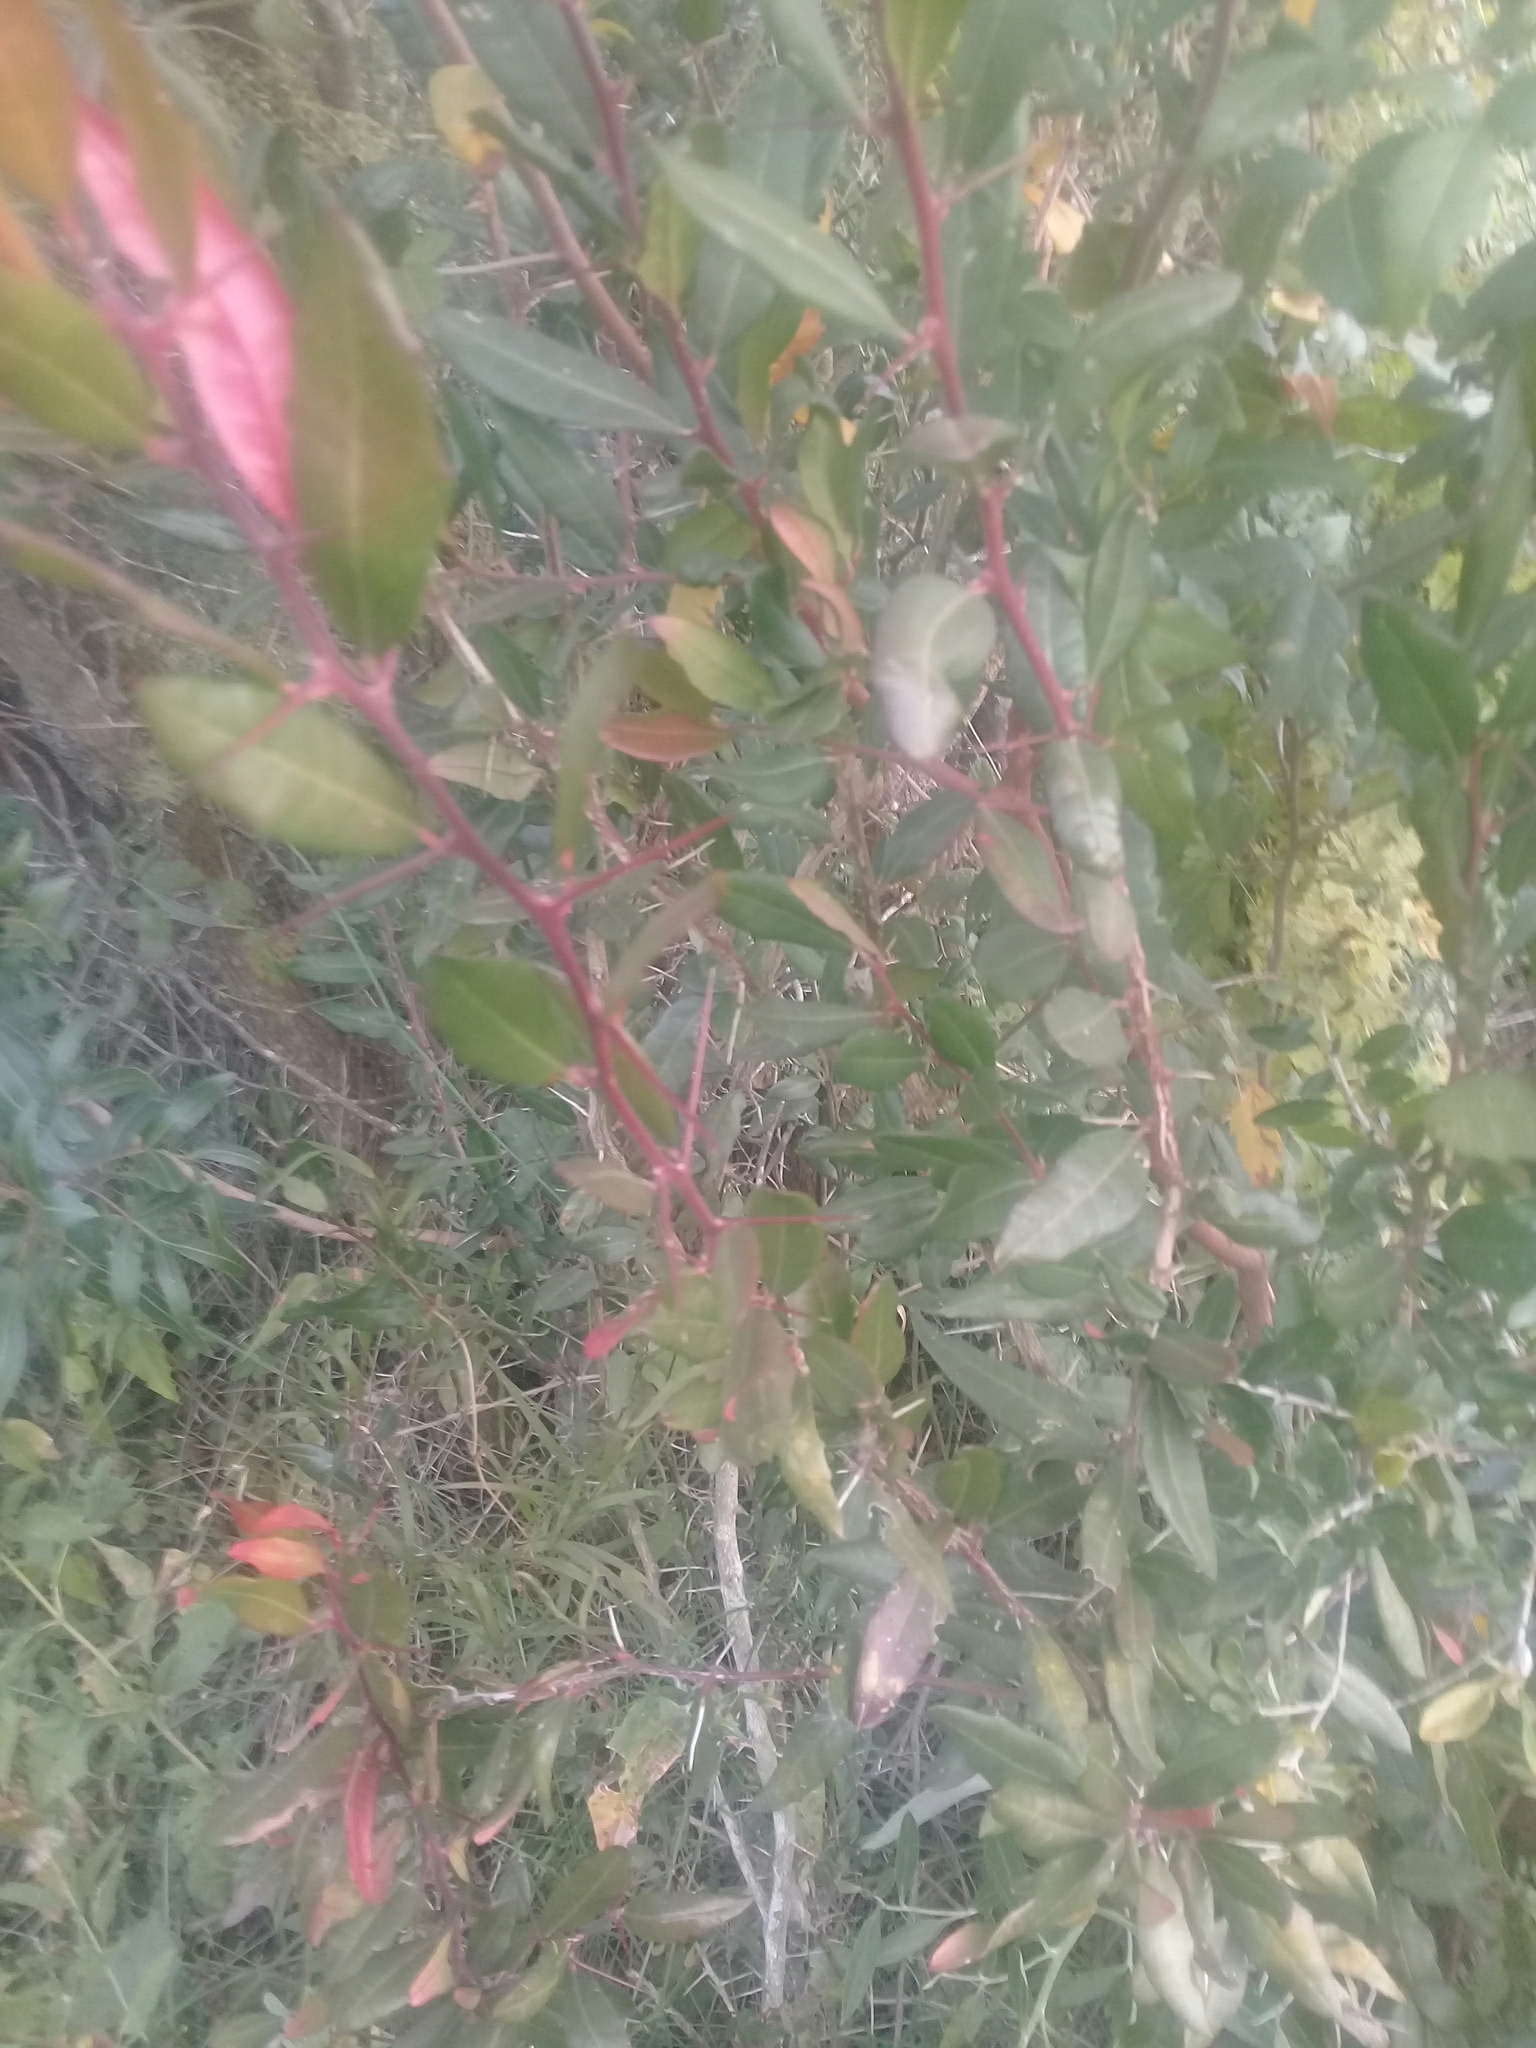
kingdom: Plantae
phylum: Tracheophyta
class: Magnoliopsida
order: Sapindales
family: Simaroubaceae
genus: Castela
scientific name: Castela tweediei
